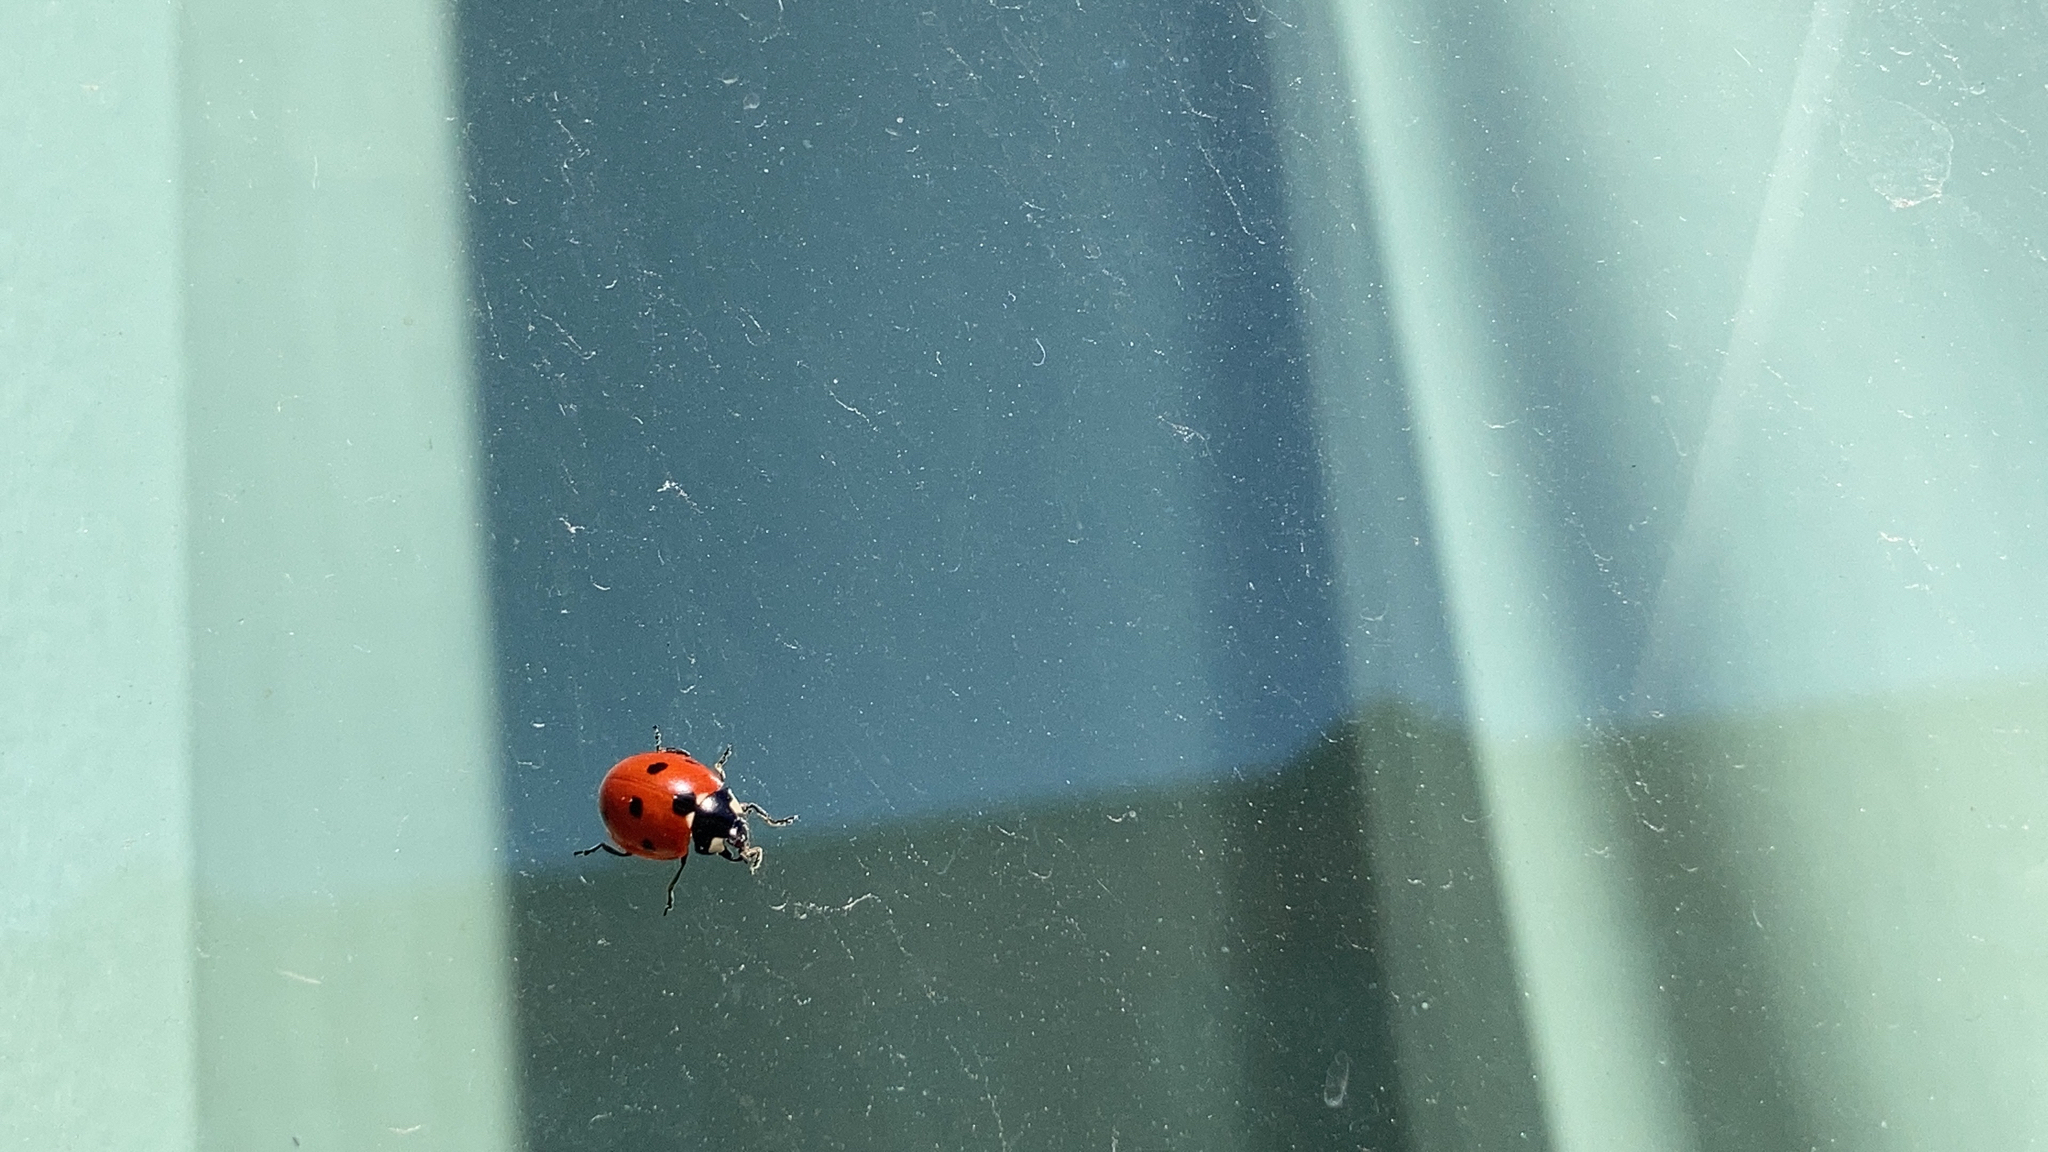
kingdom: Animalia
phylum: Arthropoda
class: Insecta
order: Coleoptera
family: Coccinellidae
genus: Coccinella
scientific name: Coccinella septempunctata
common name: Sevenspotted lady beetle
